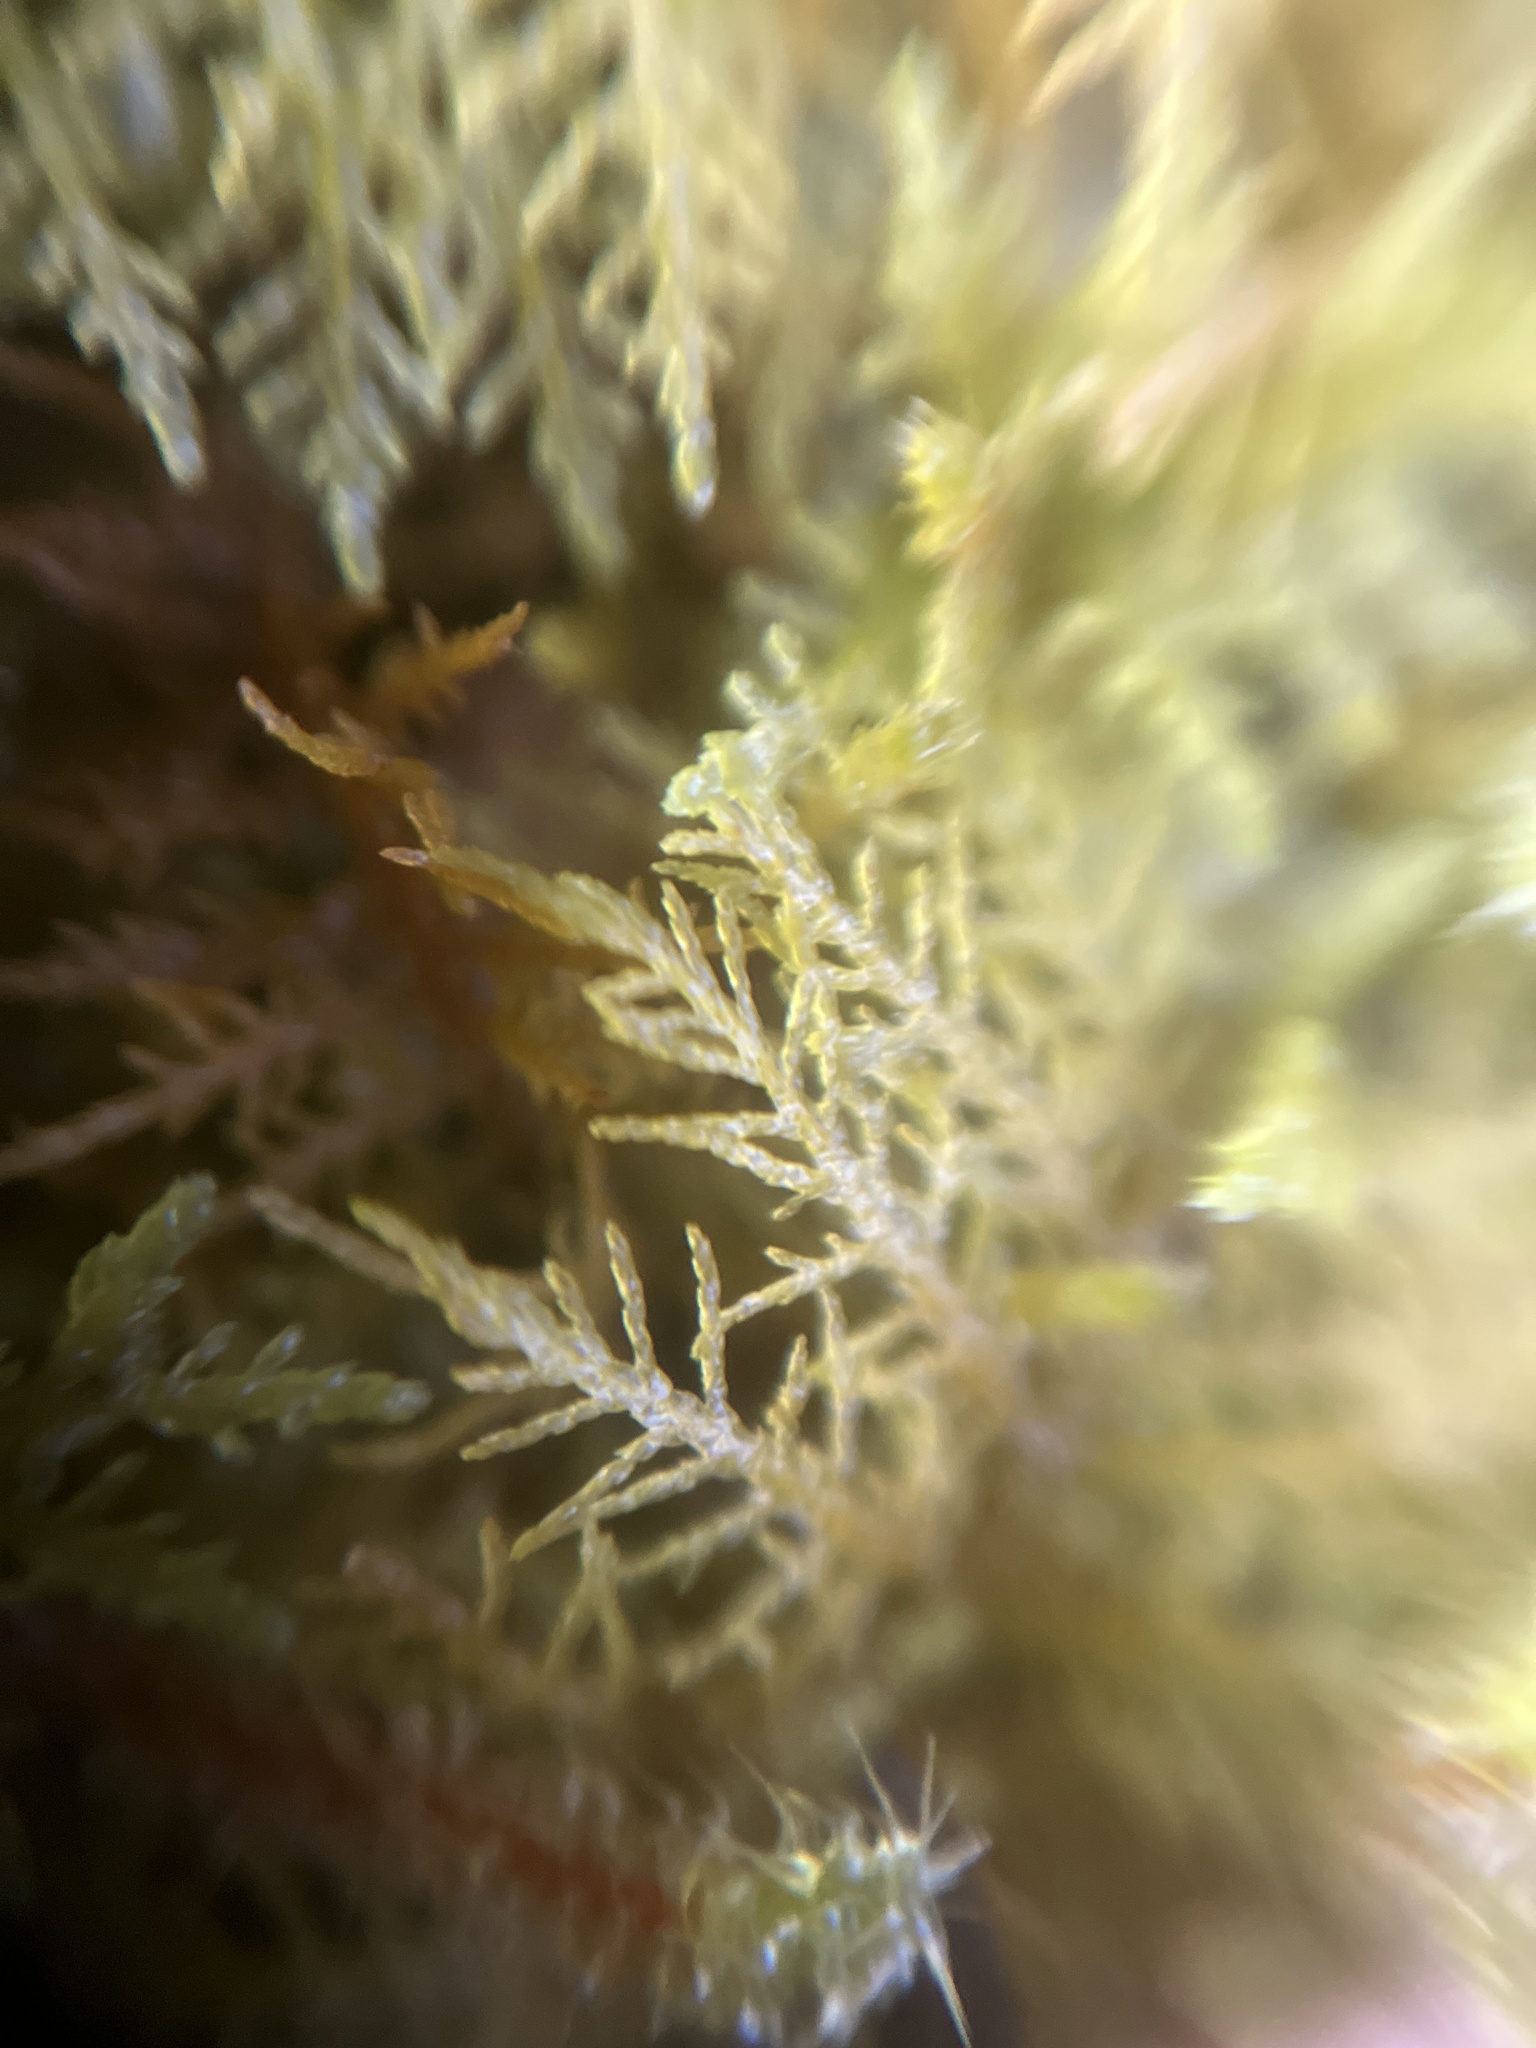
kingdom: Plantae
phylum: Bryophyta
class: Bryopsida
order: Hypnales
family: Hylocomiaceae
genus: Hylocomium
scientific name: Hylocomium splendens
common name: Stairstep moss
